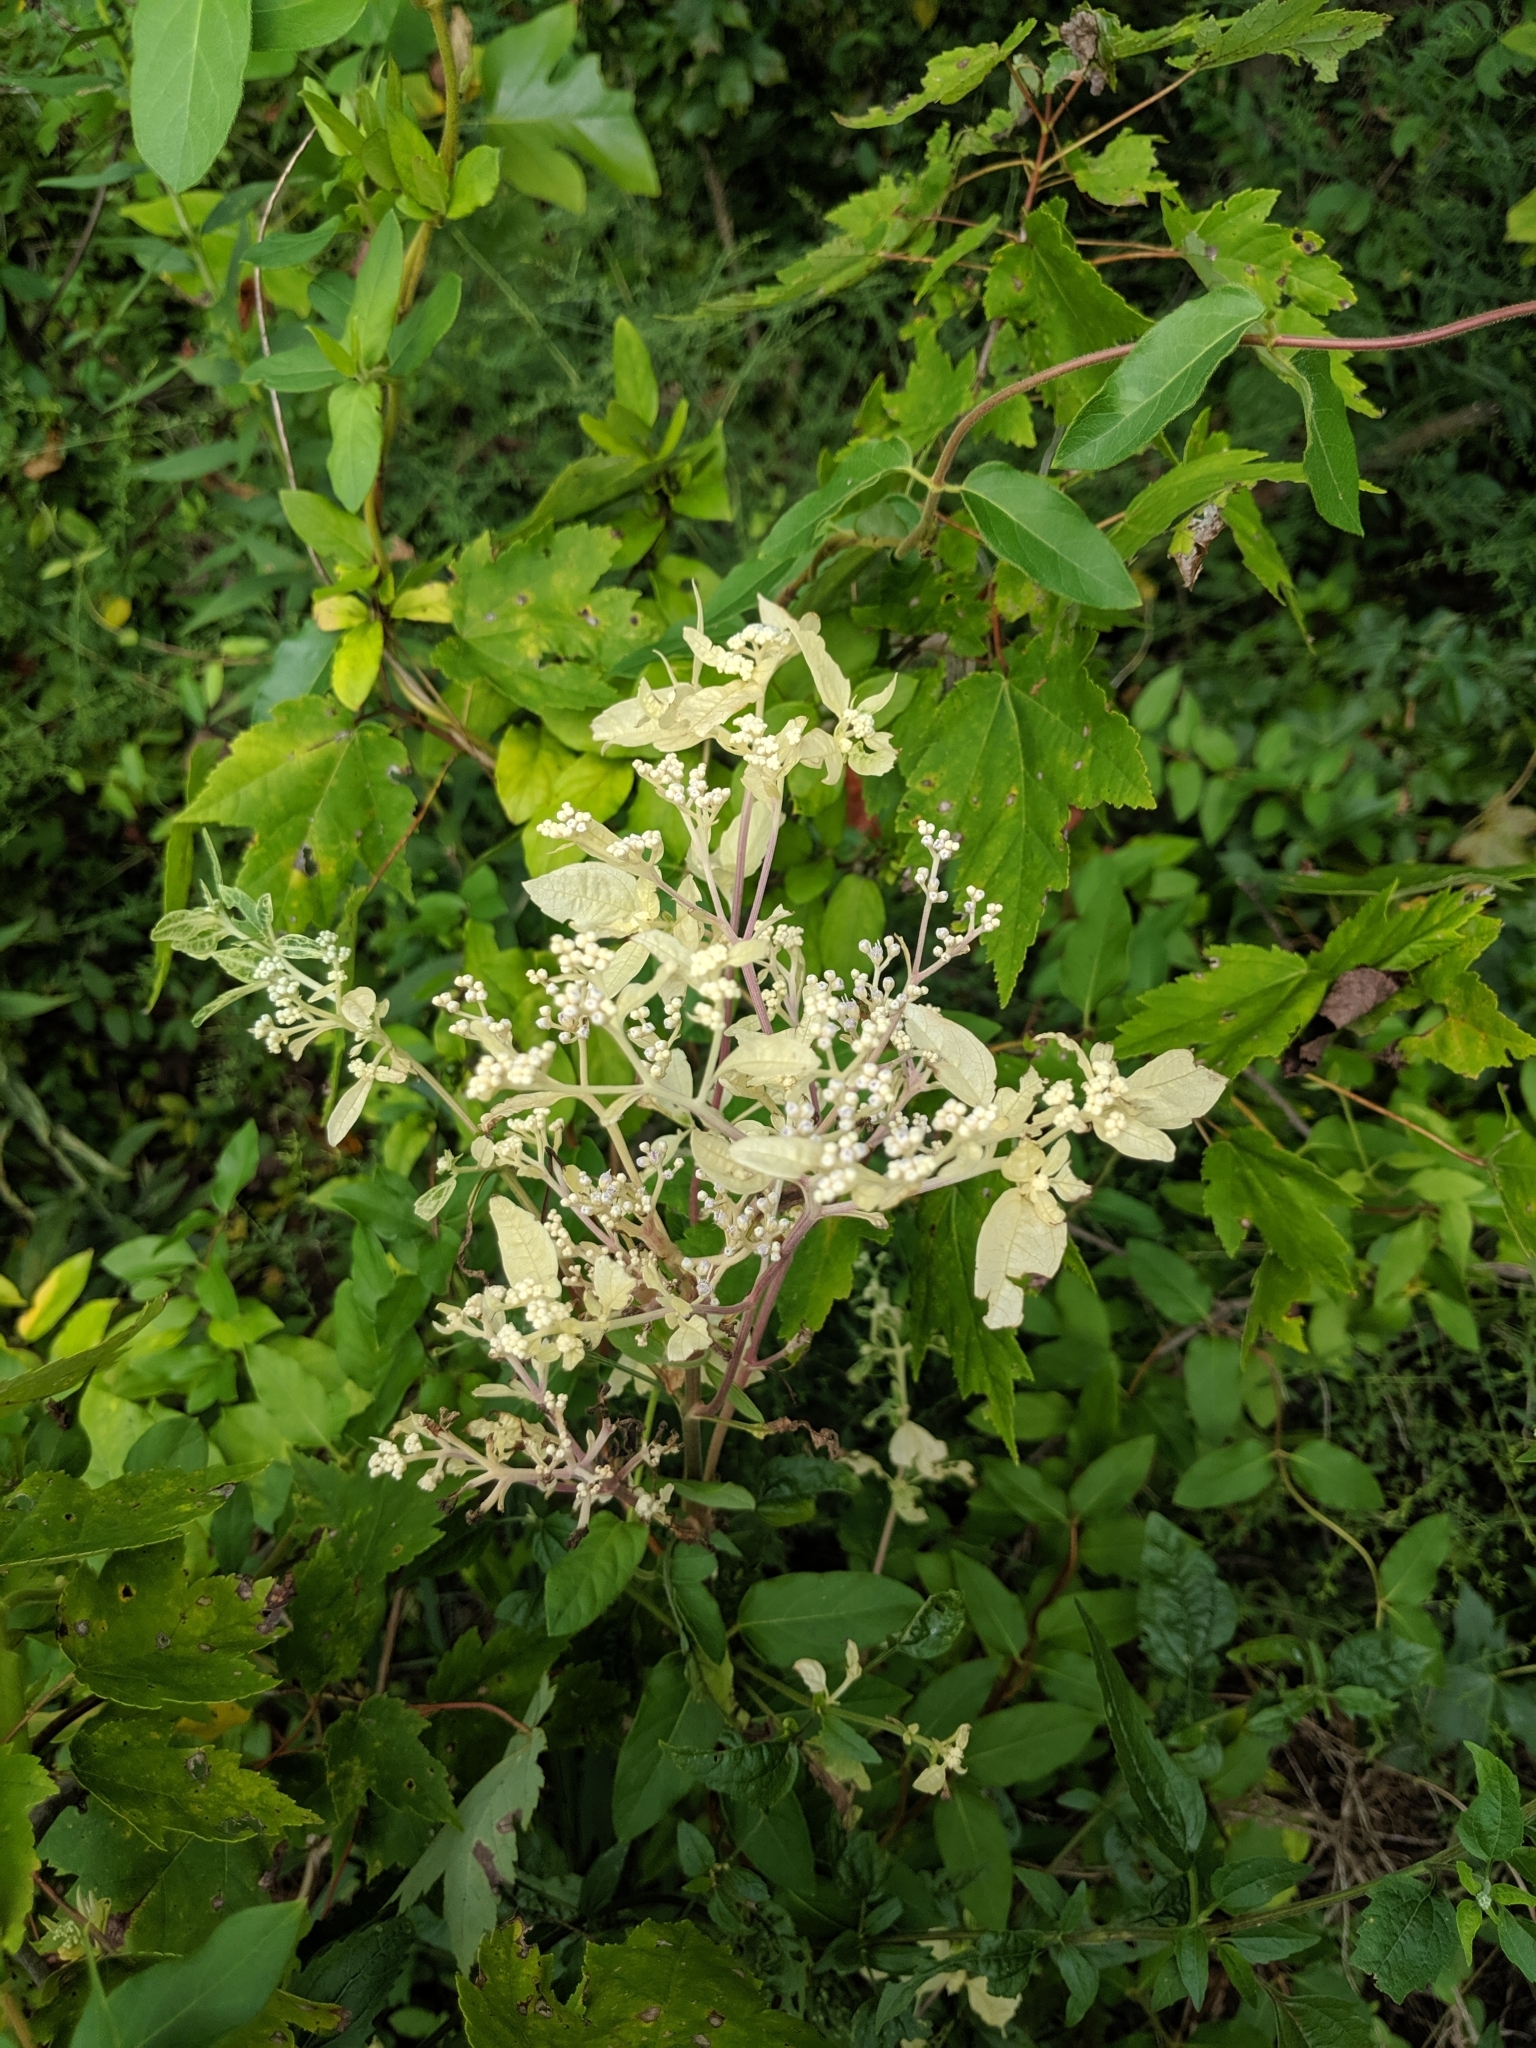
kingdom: Plantae
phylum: Tracheophyta
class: Magnoliopsida
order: Asterales
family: Asteraceae
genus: Eupatorium
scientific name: Eupatorium serotinum
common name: Late boneset
